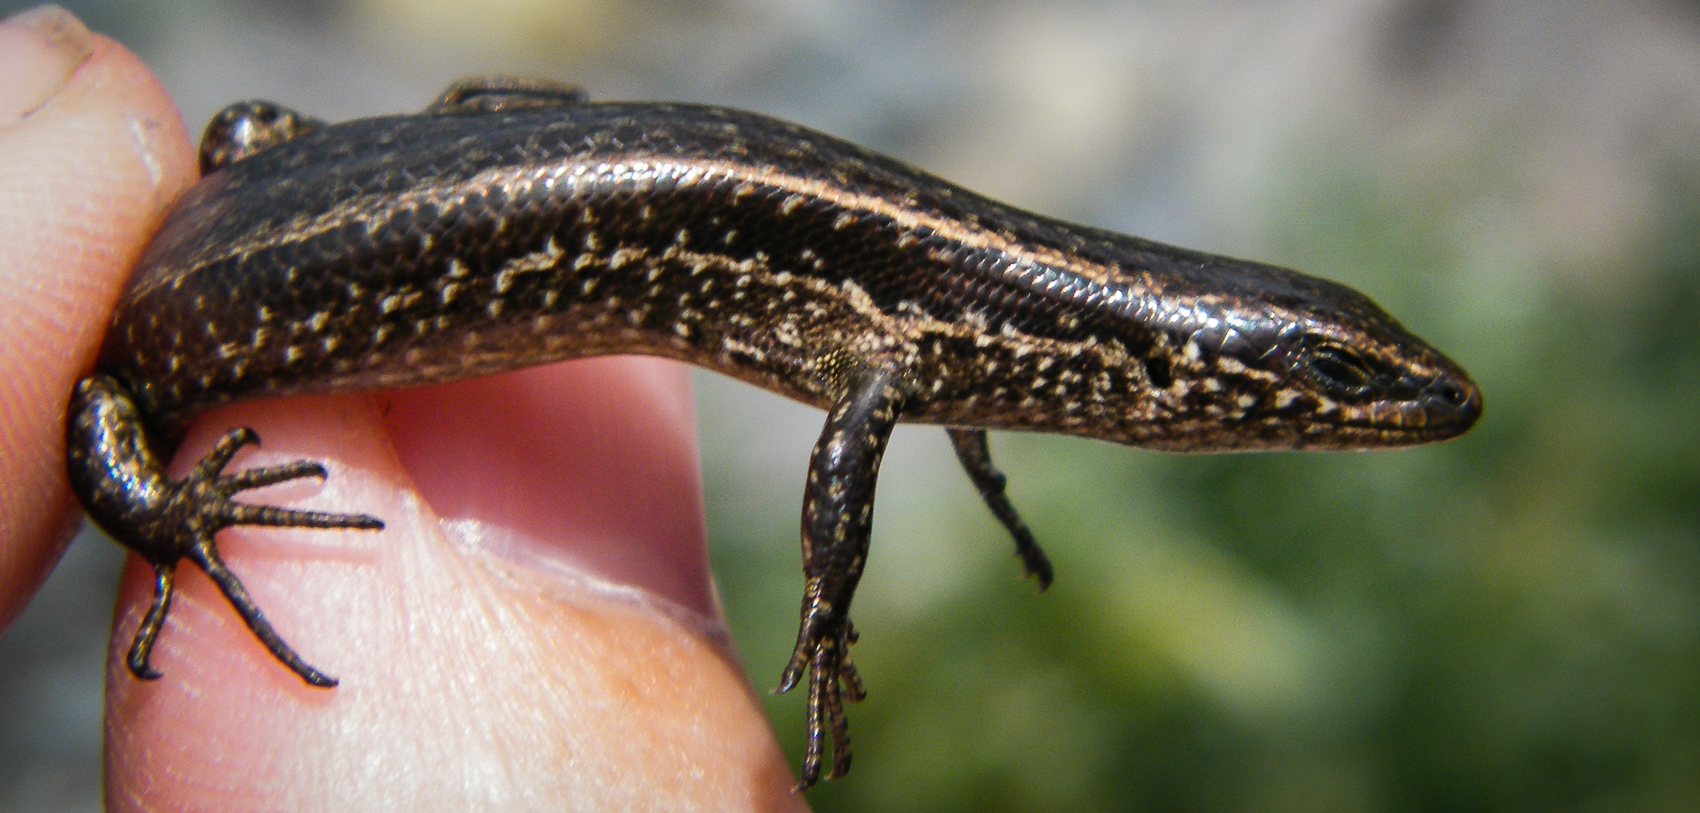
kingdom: Animalia
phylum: Chordata
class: Squamata
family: Scincidae
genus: Oligosoma
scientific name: Oligosoma zelandicum
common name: Brown skink
